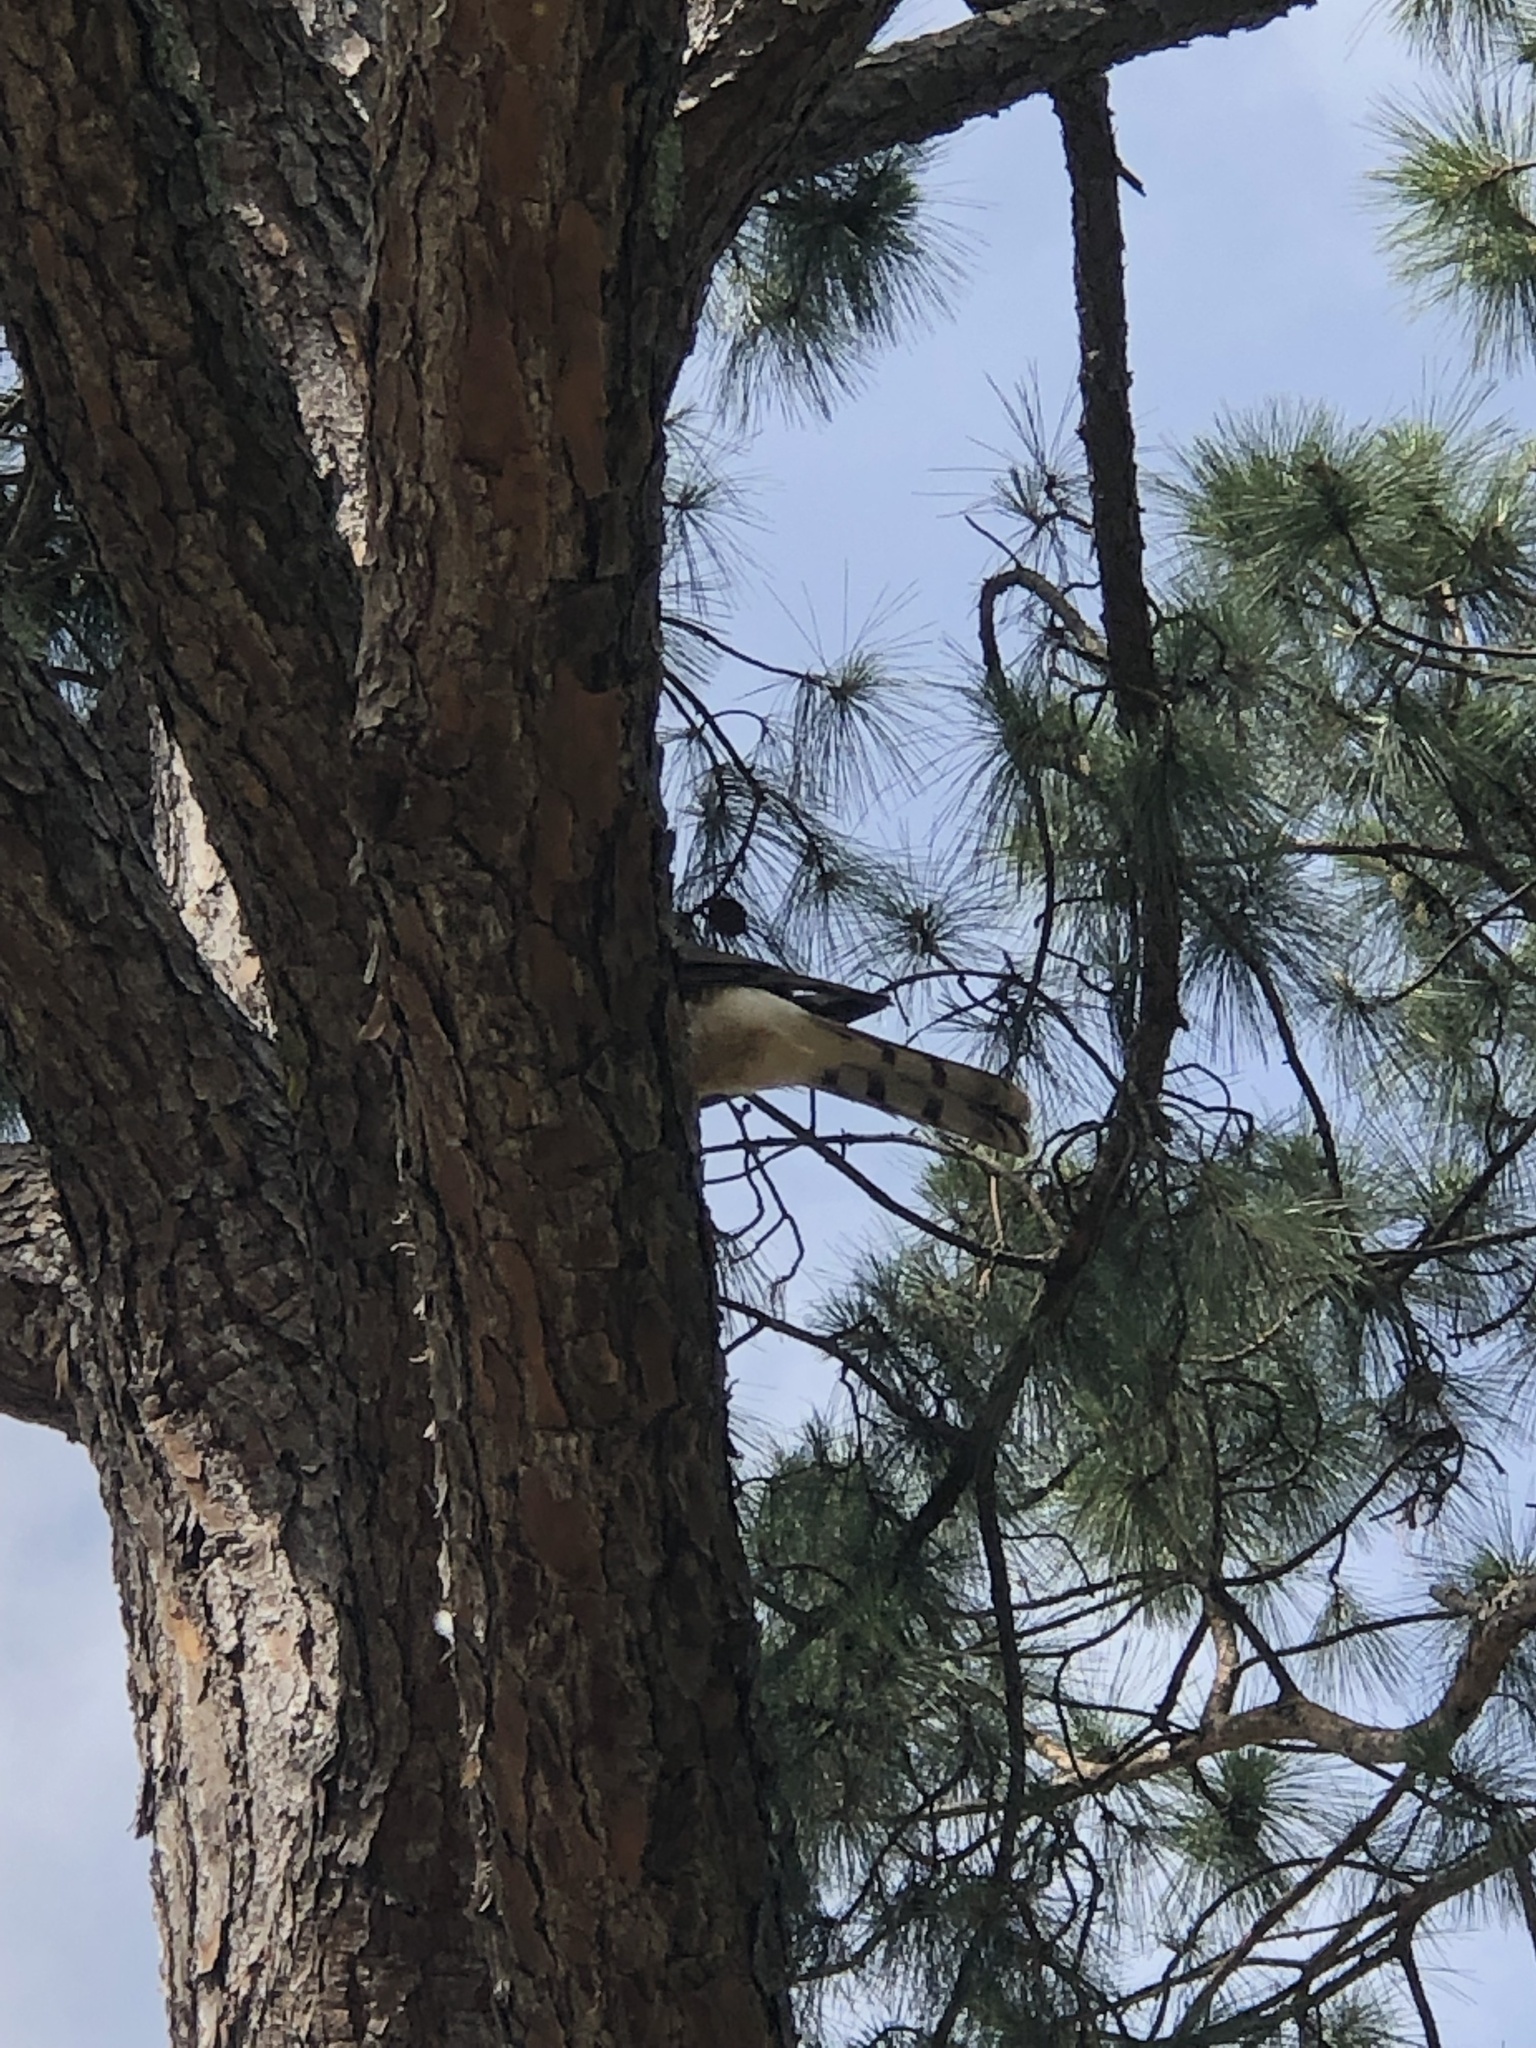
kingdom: Animalia
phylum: Chordata
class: Aves
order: Accipitriformes
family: Accipitridae
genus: Accipiter
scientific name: Accipiter cooperii
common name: Cooper's hawk
